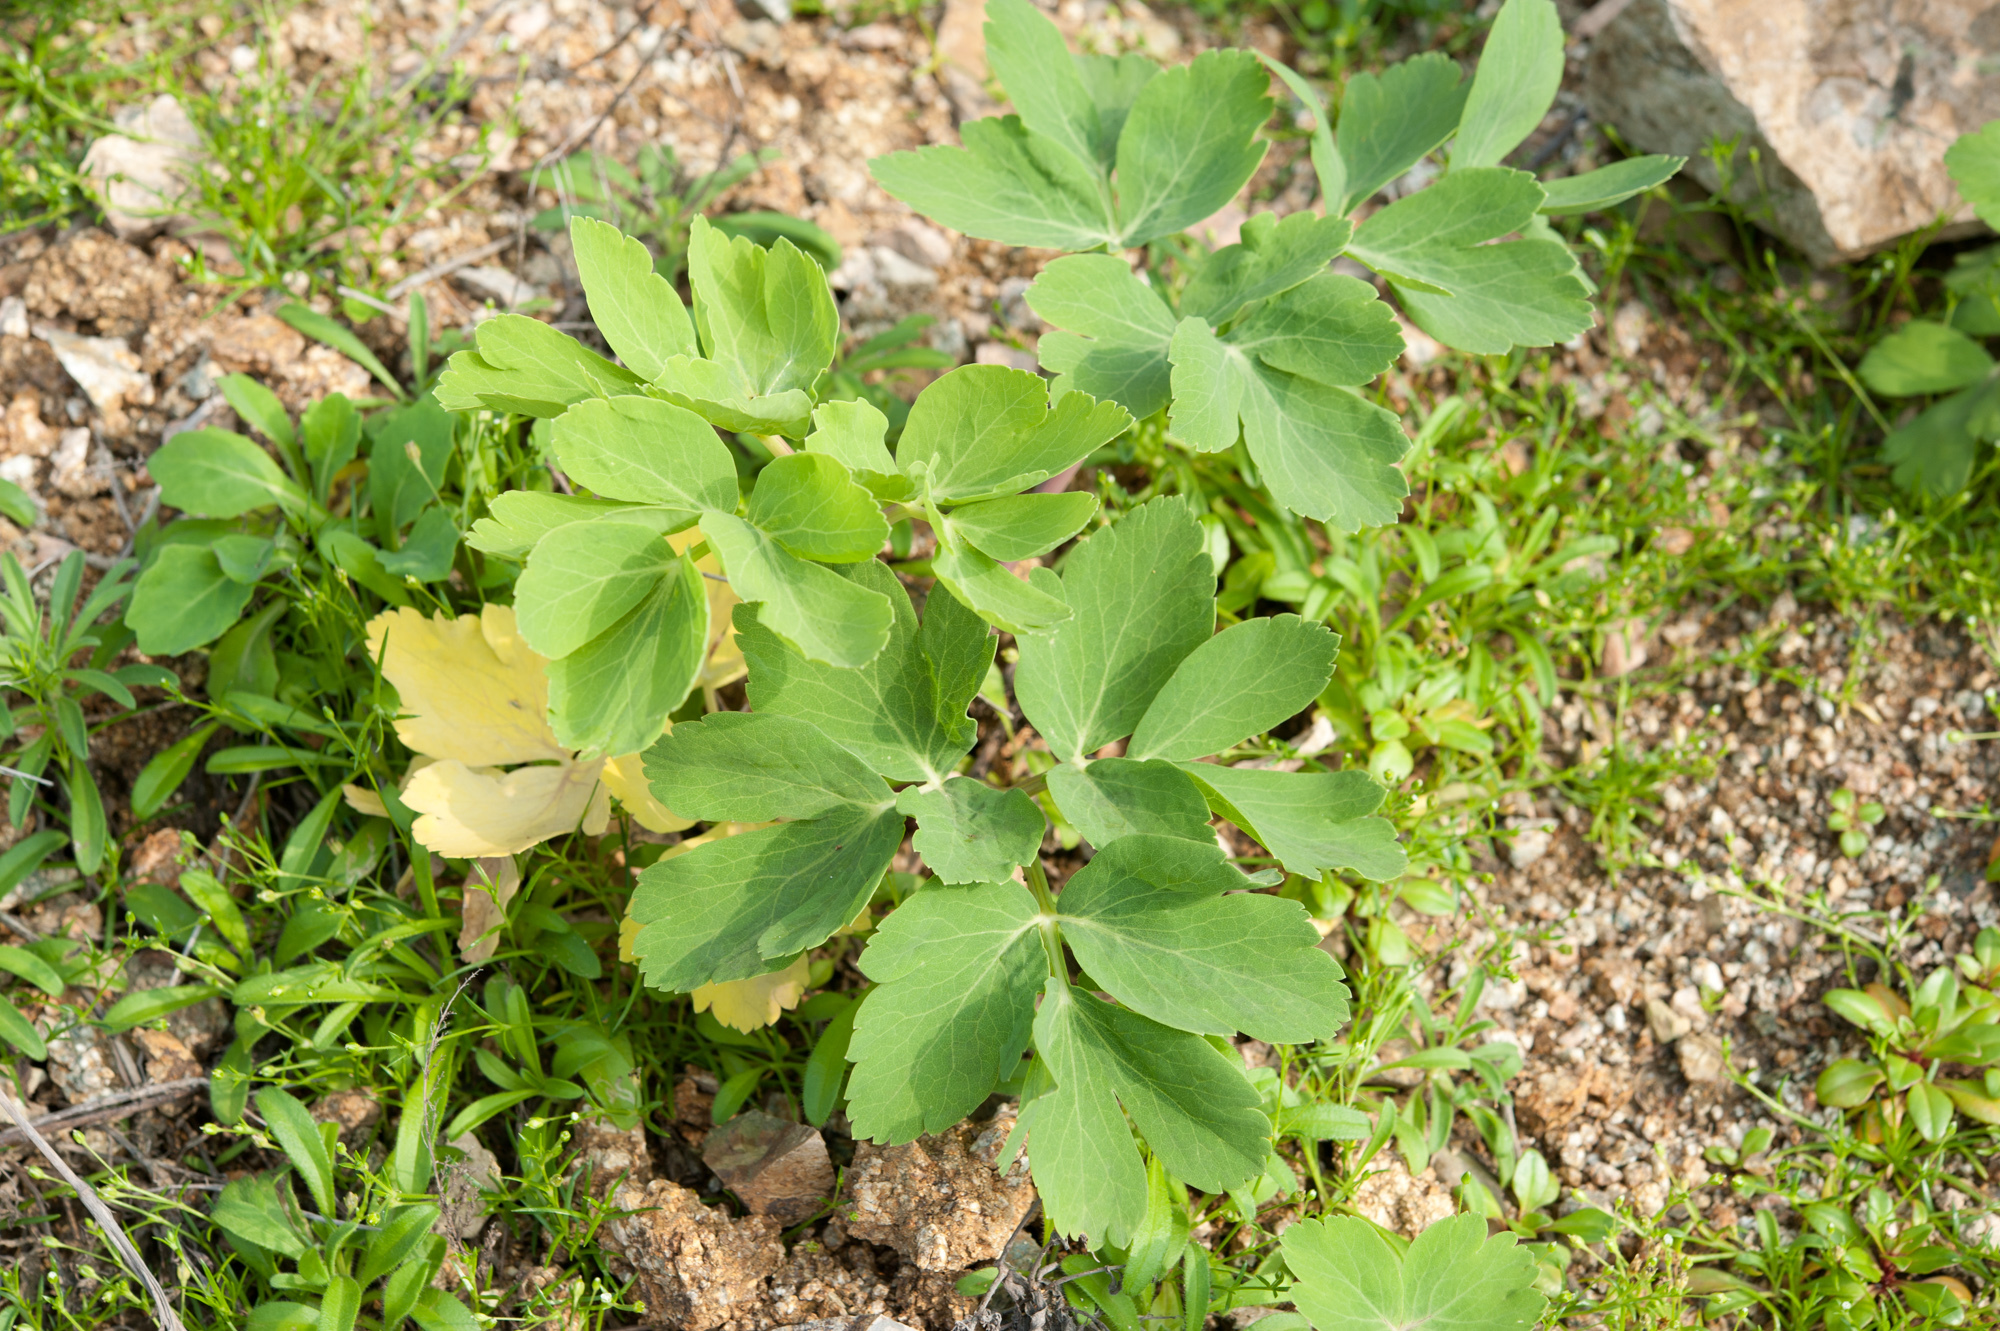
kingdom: Plantae
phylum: Tracheophyta
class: Magnoliopsida
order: Apiales
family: Apiaceae
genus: Peucedanum
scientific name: Peucedanum japonicum
